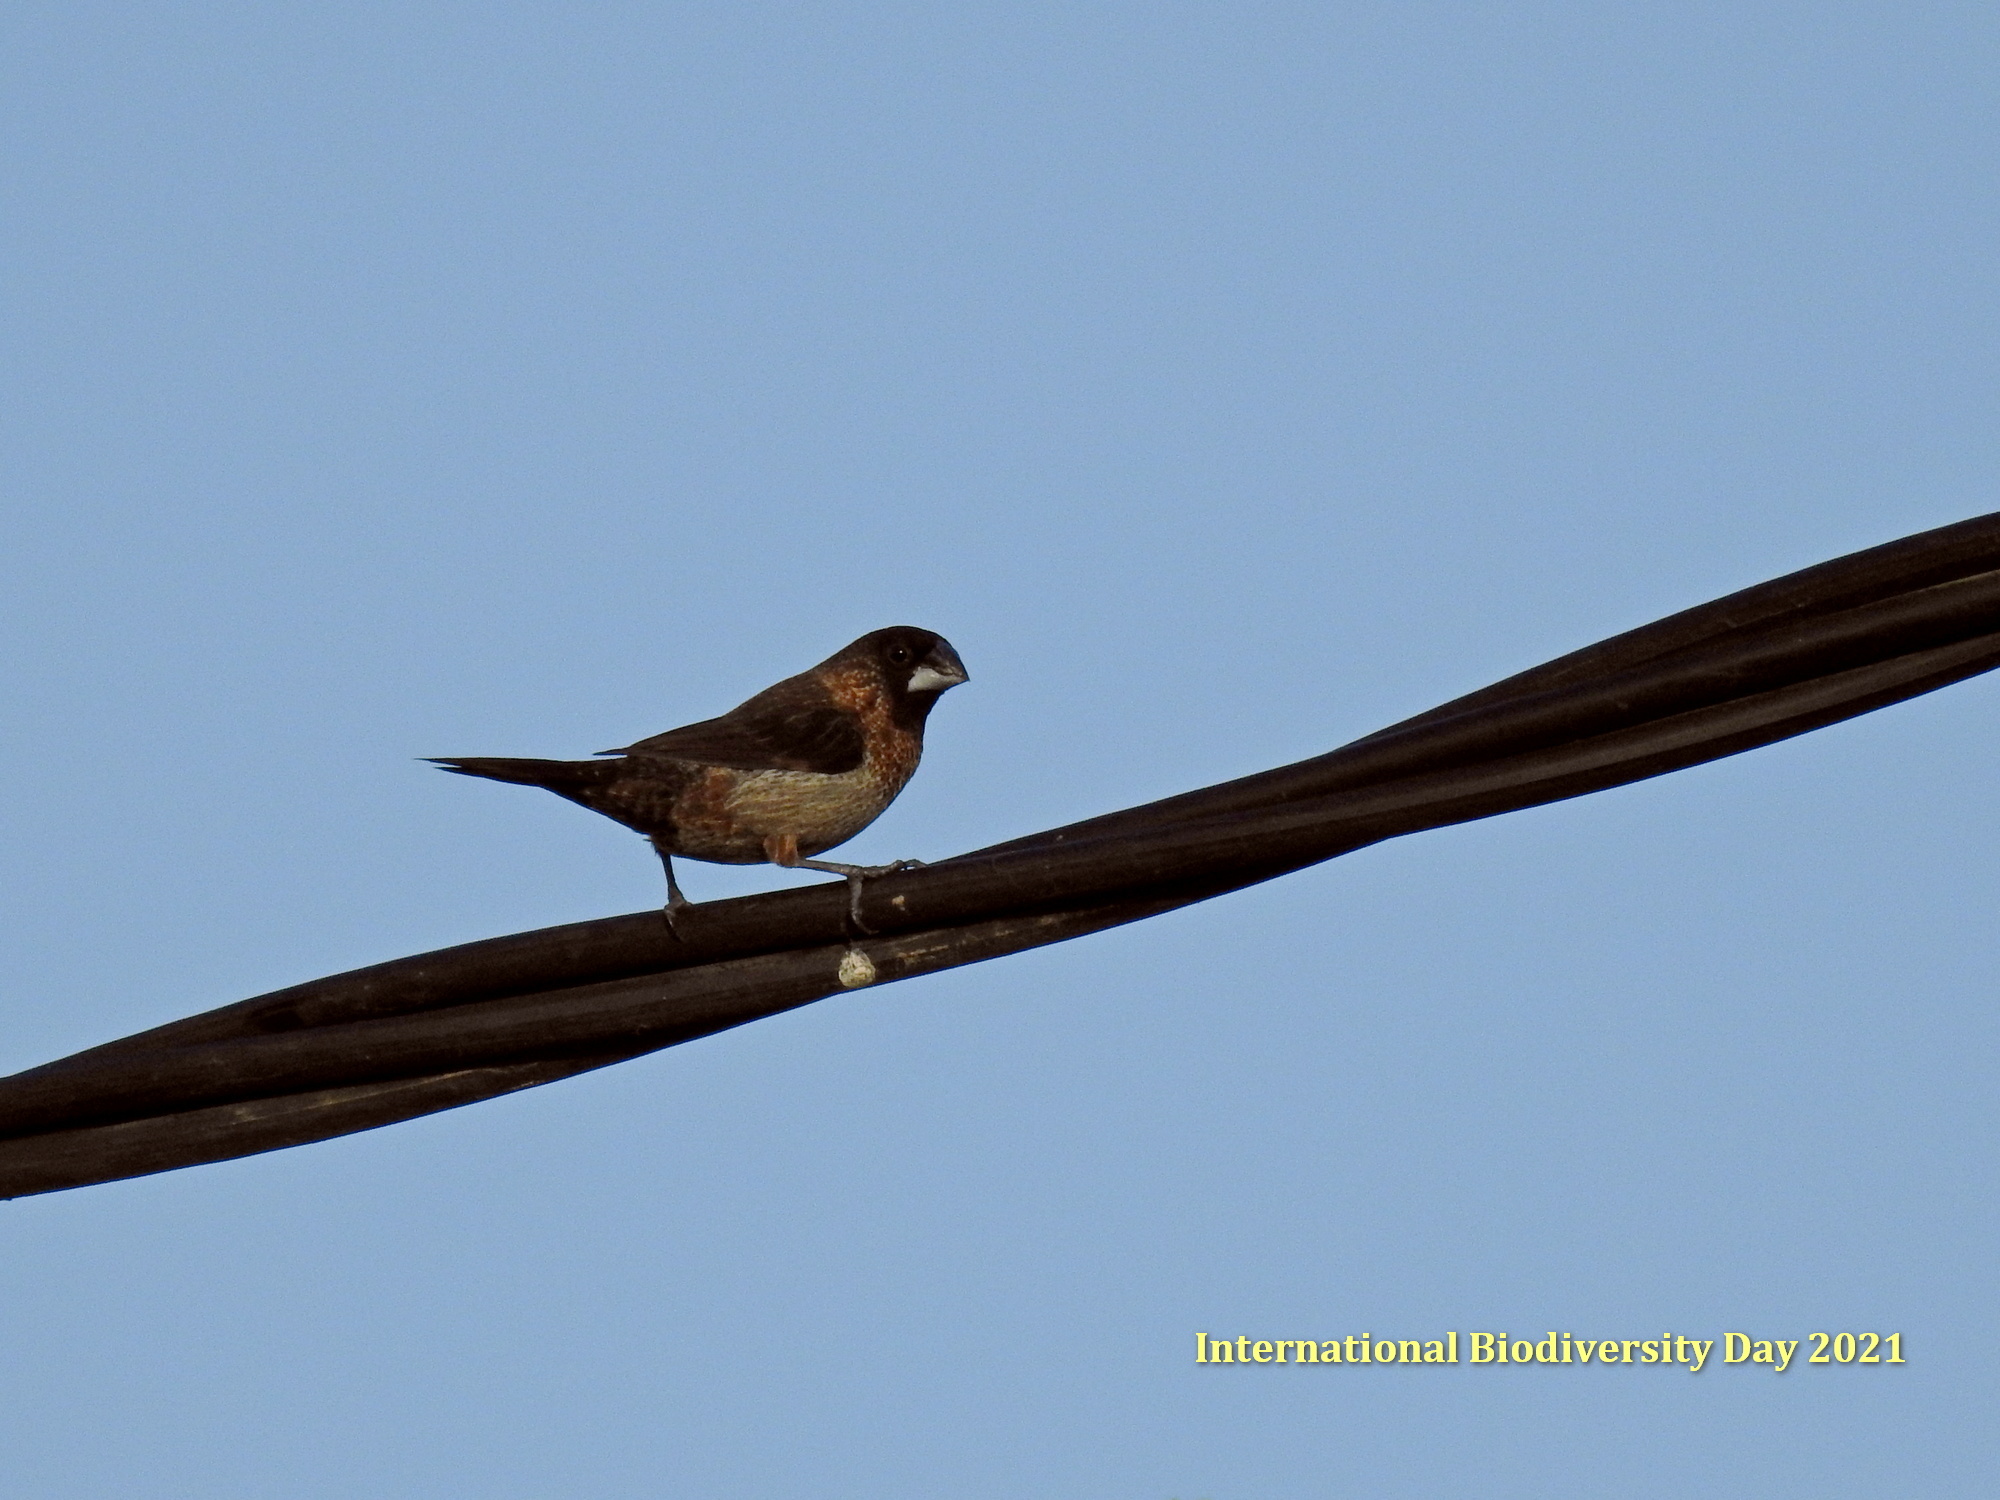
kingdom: Animalia
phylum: Chordata
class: Aves
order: Passeriformes
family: Estrildidae
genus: Lonchura
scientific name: Lonchura striata
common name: White-rumped munia
